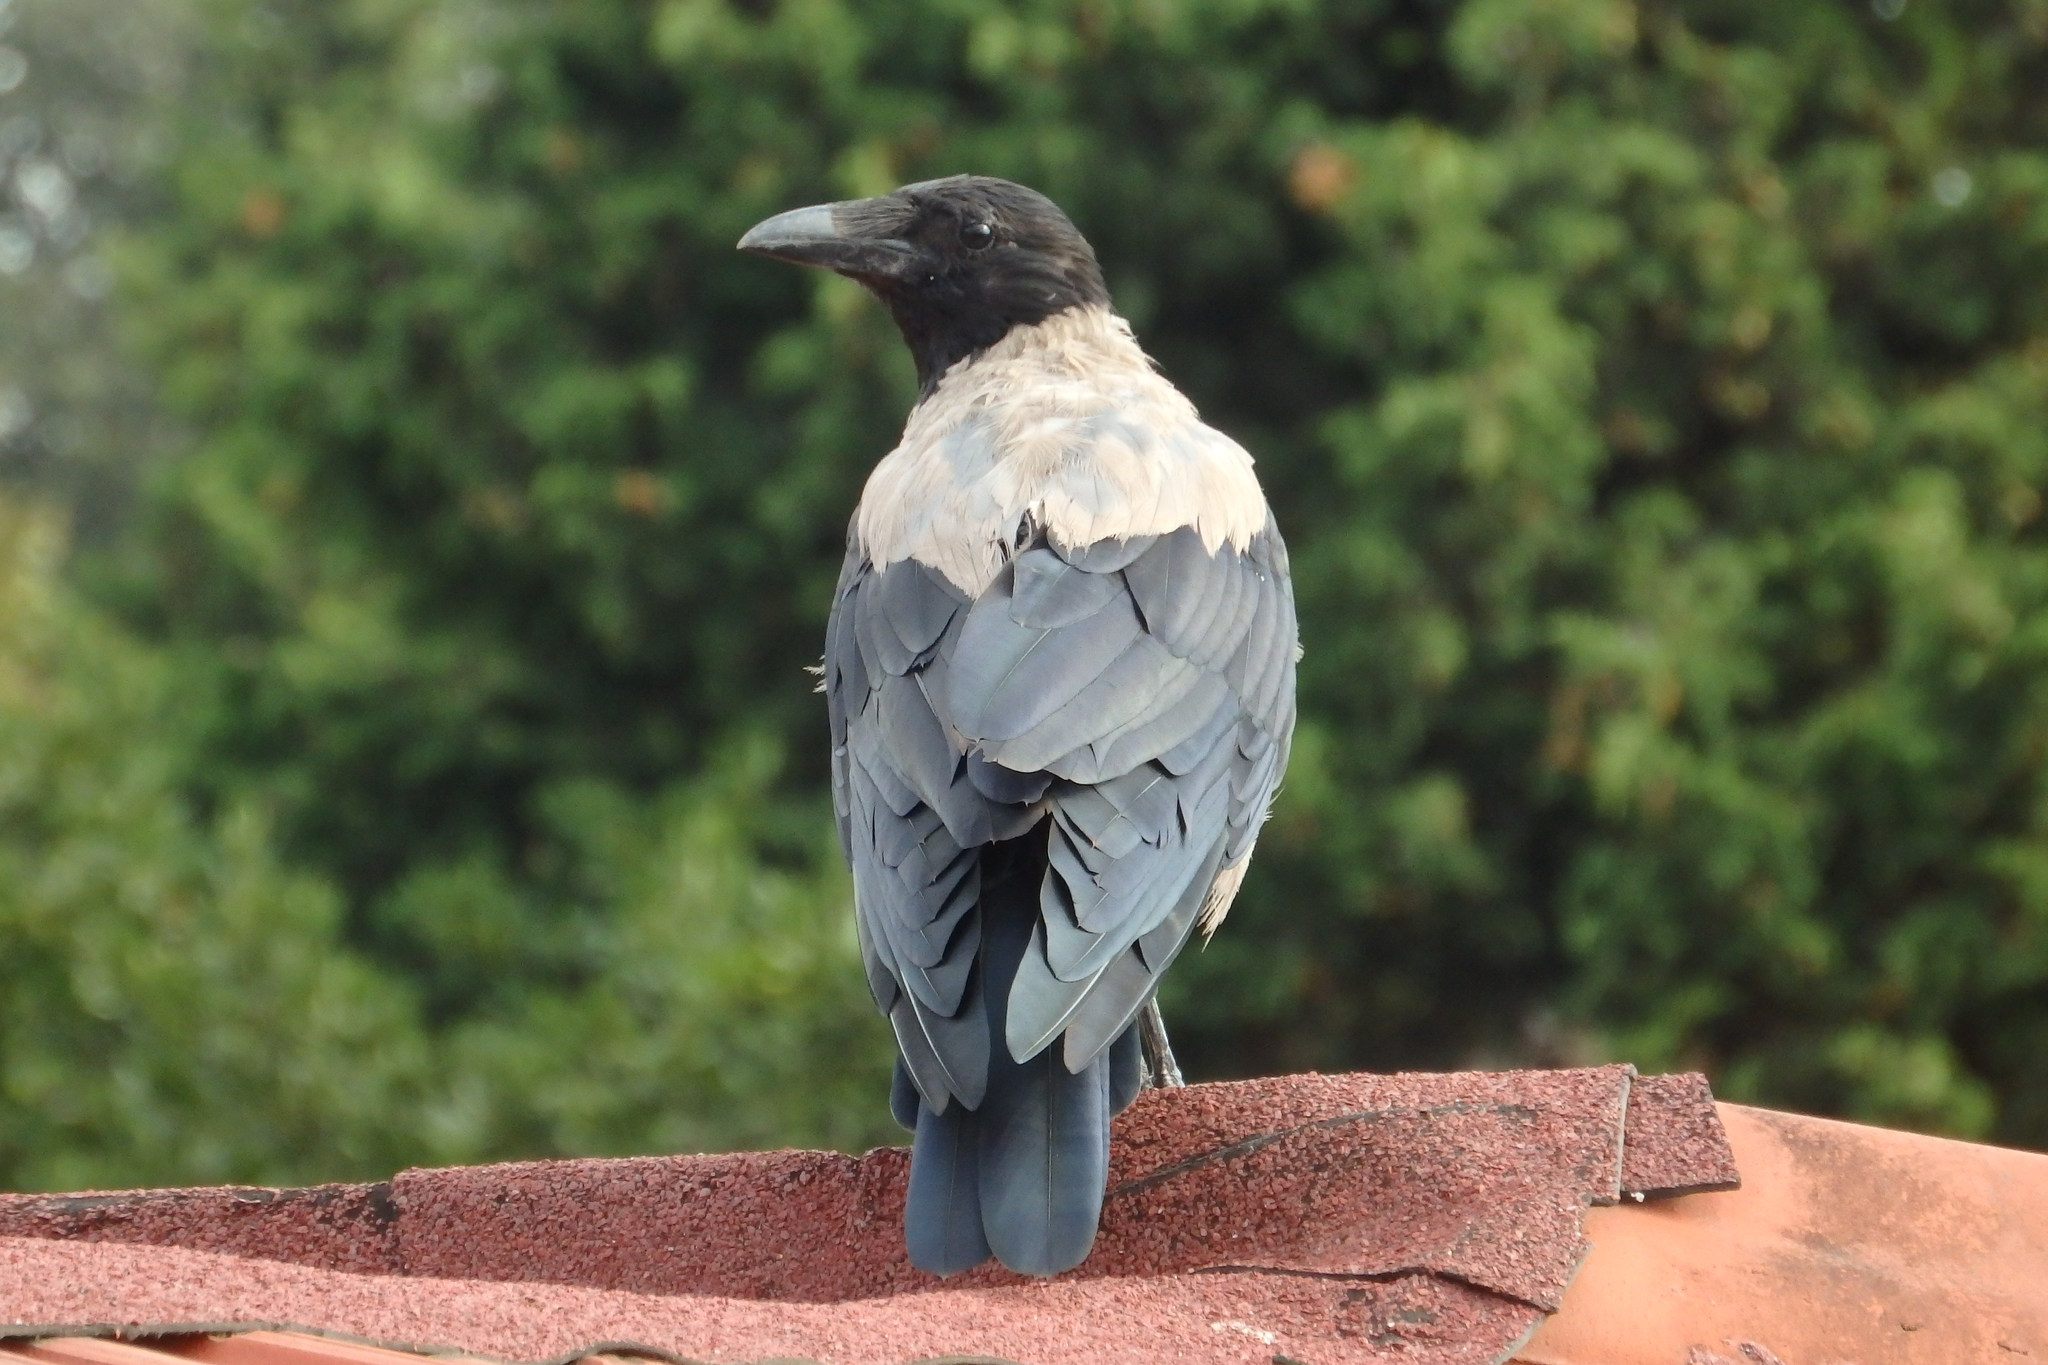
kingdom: Animalia
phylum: Chordata
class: Aves
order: Passeriformes
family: Corvidae
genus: Corvus
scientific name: Corvus cornix
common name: Hooded crow
